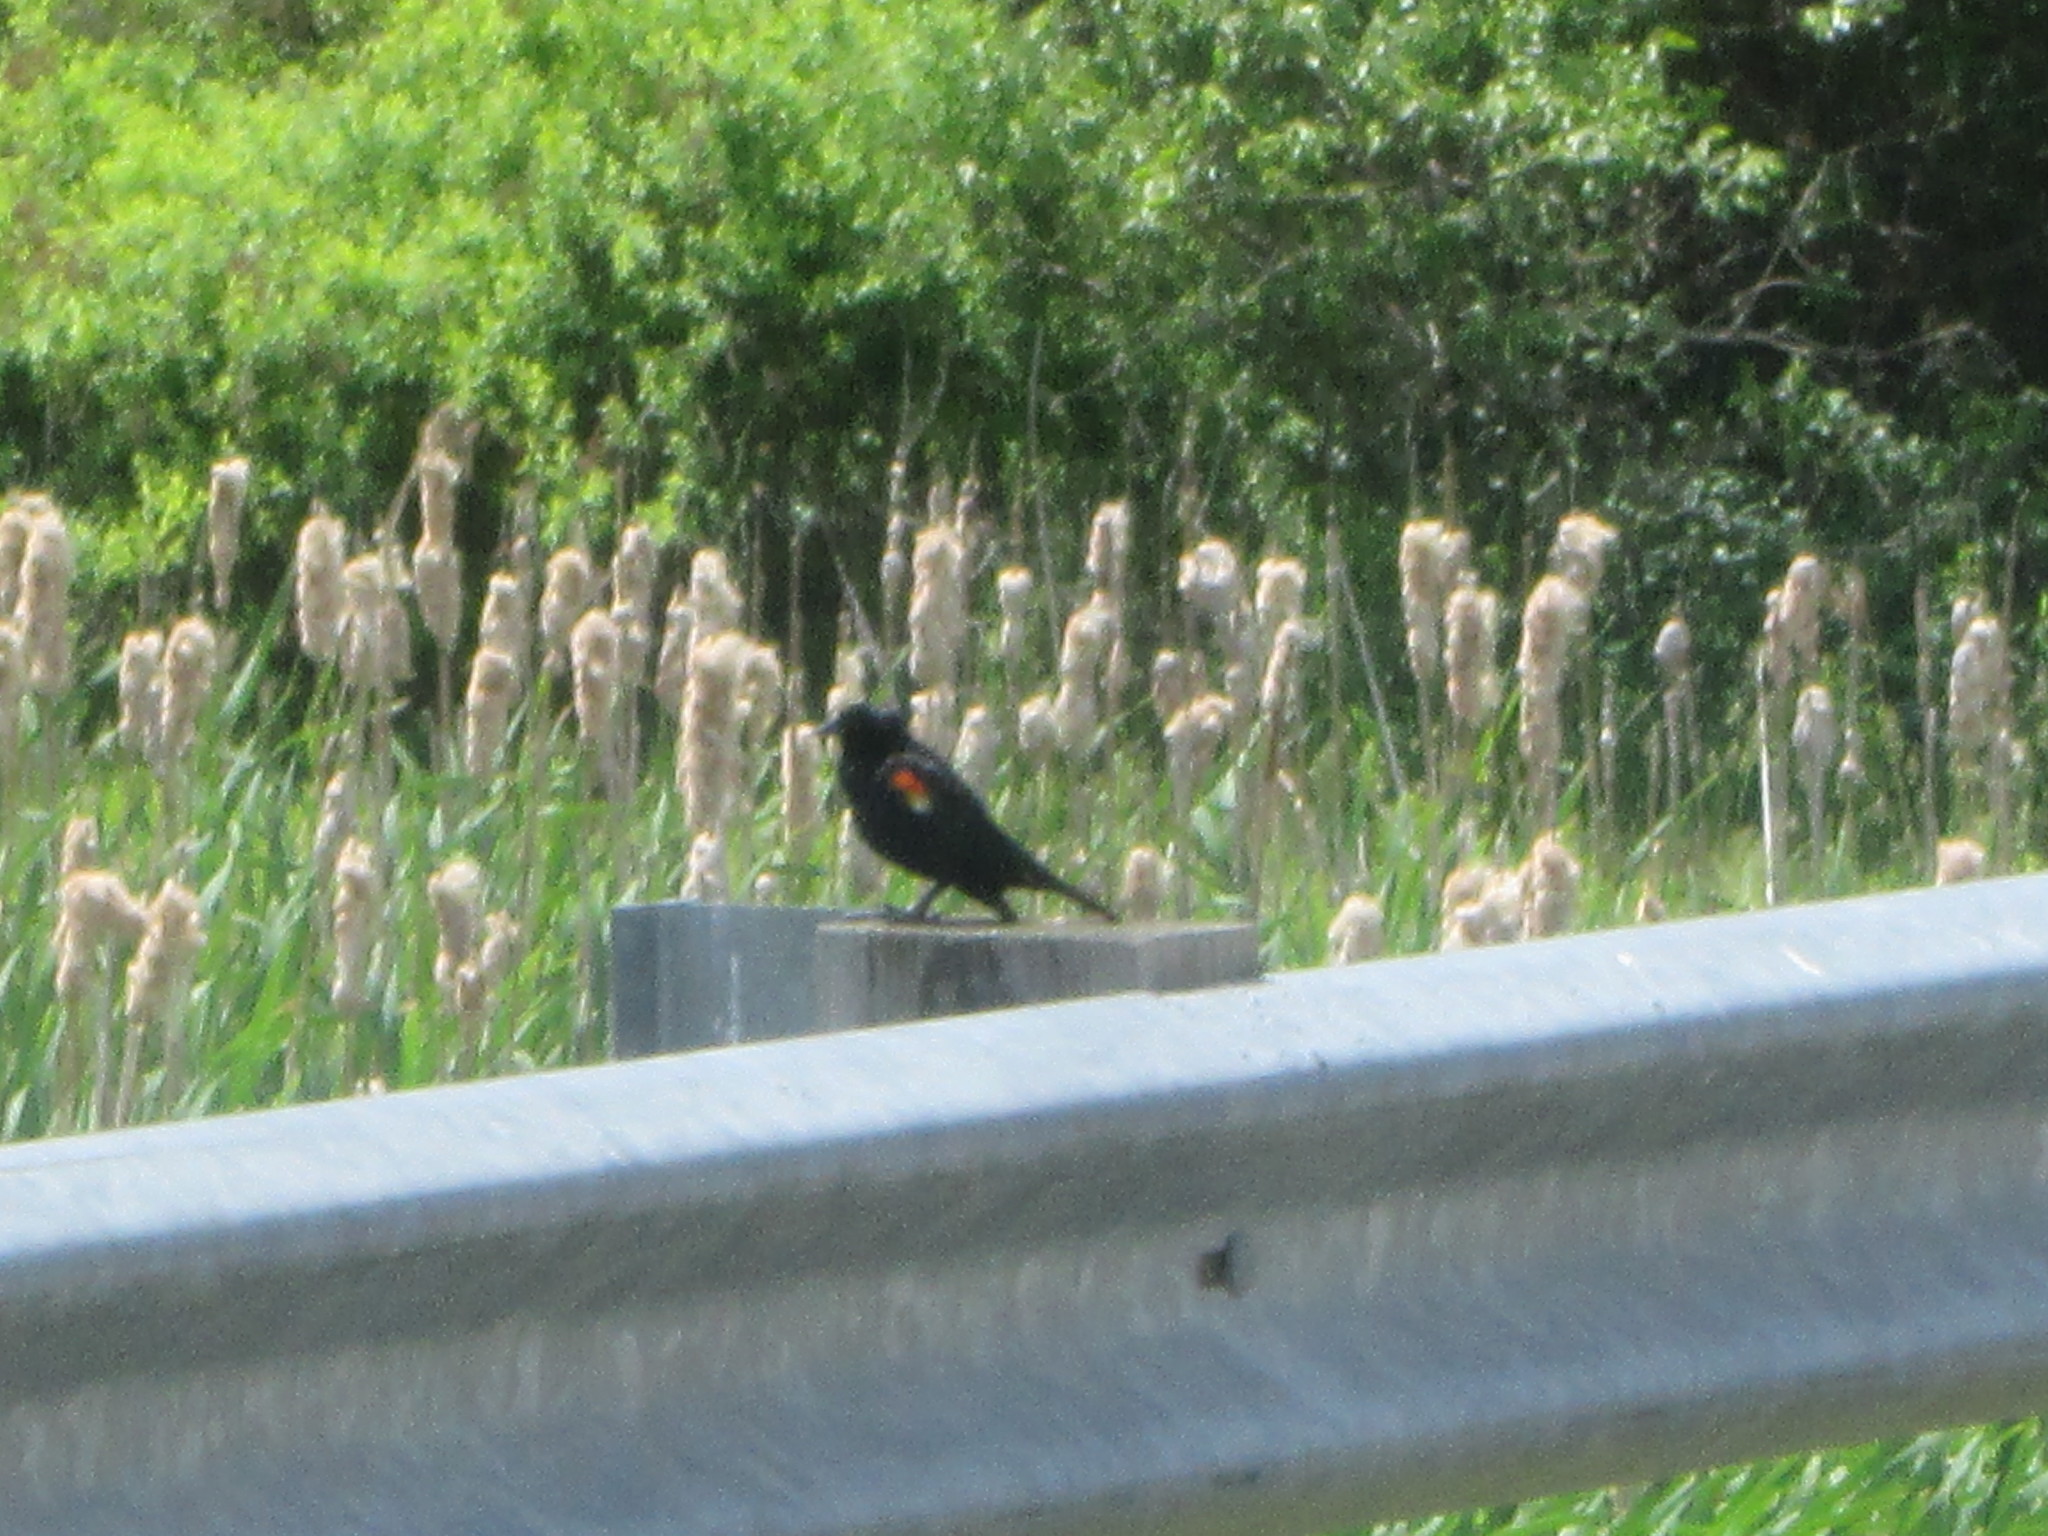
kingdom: Animalia
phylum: Chordata
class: Aves
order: Passeriformes
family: Icteridae
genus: Agelaius
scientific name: Agelaius phoeniceus
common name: Red-winged blackbird
